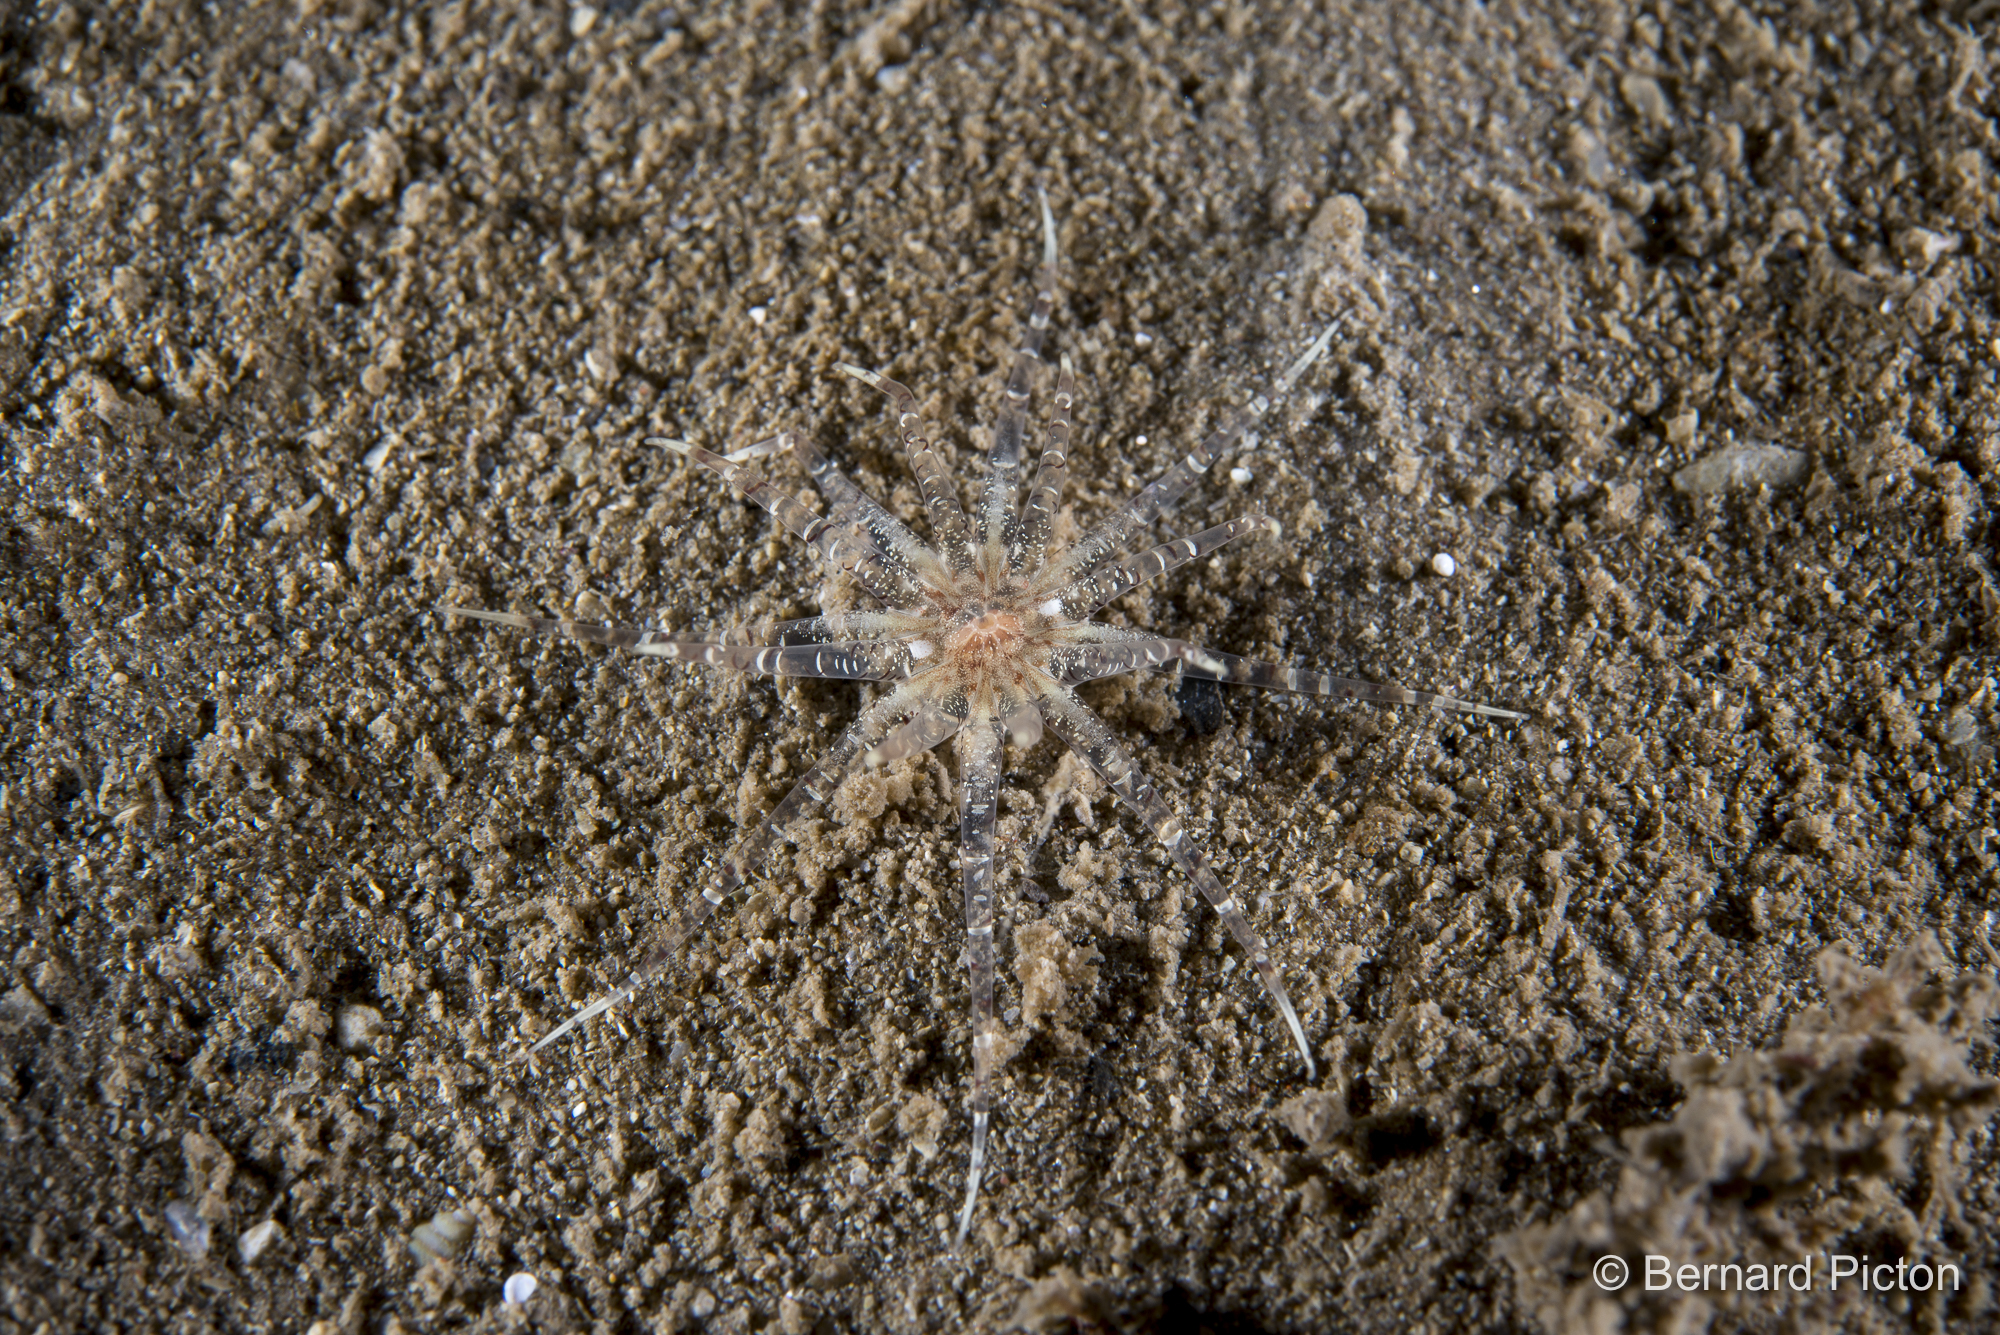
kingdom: Animalia
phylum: Cnidaria
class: Anthozoa
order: Actiniaria
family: Edwardsiidae
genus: Edwardsia
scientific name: Edwardsia claparedii
